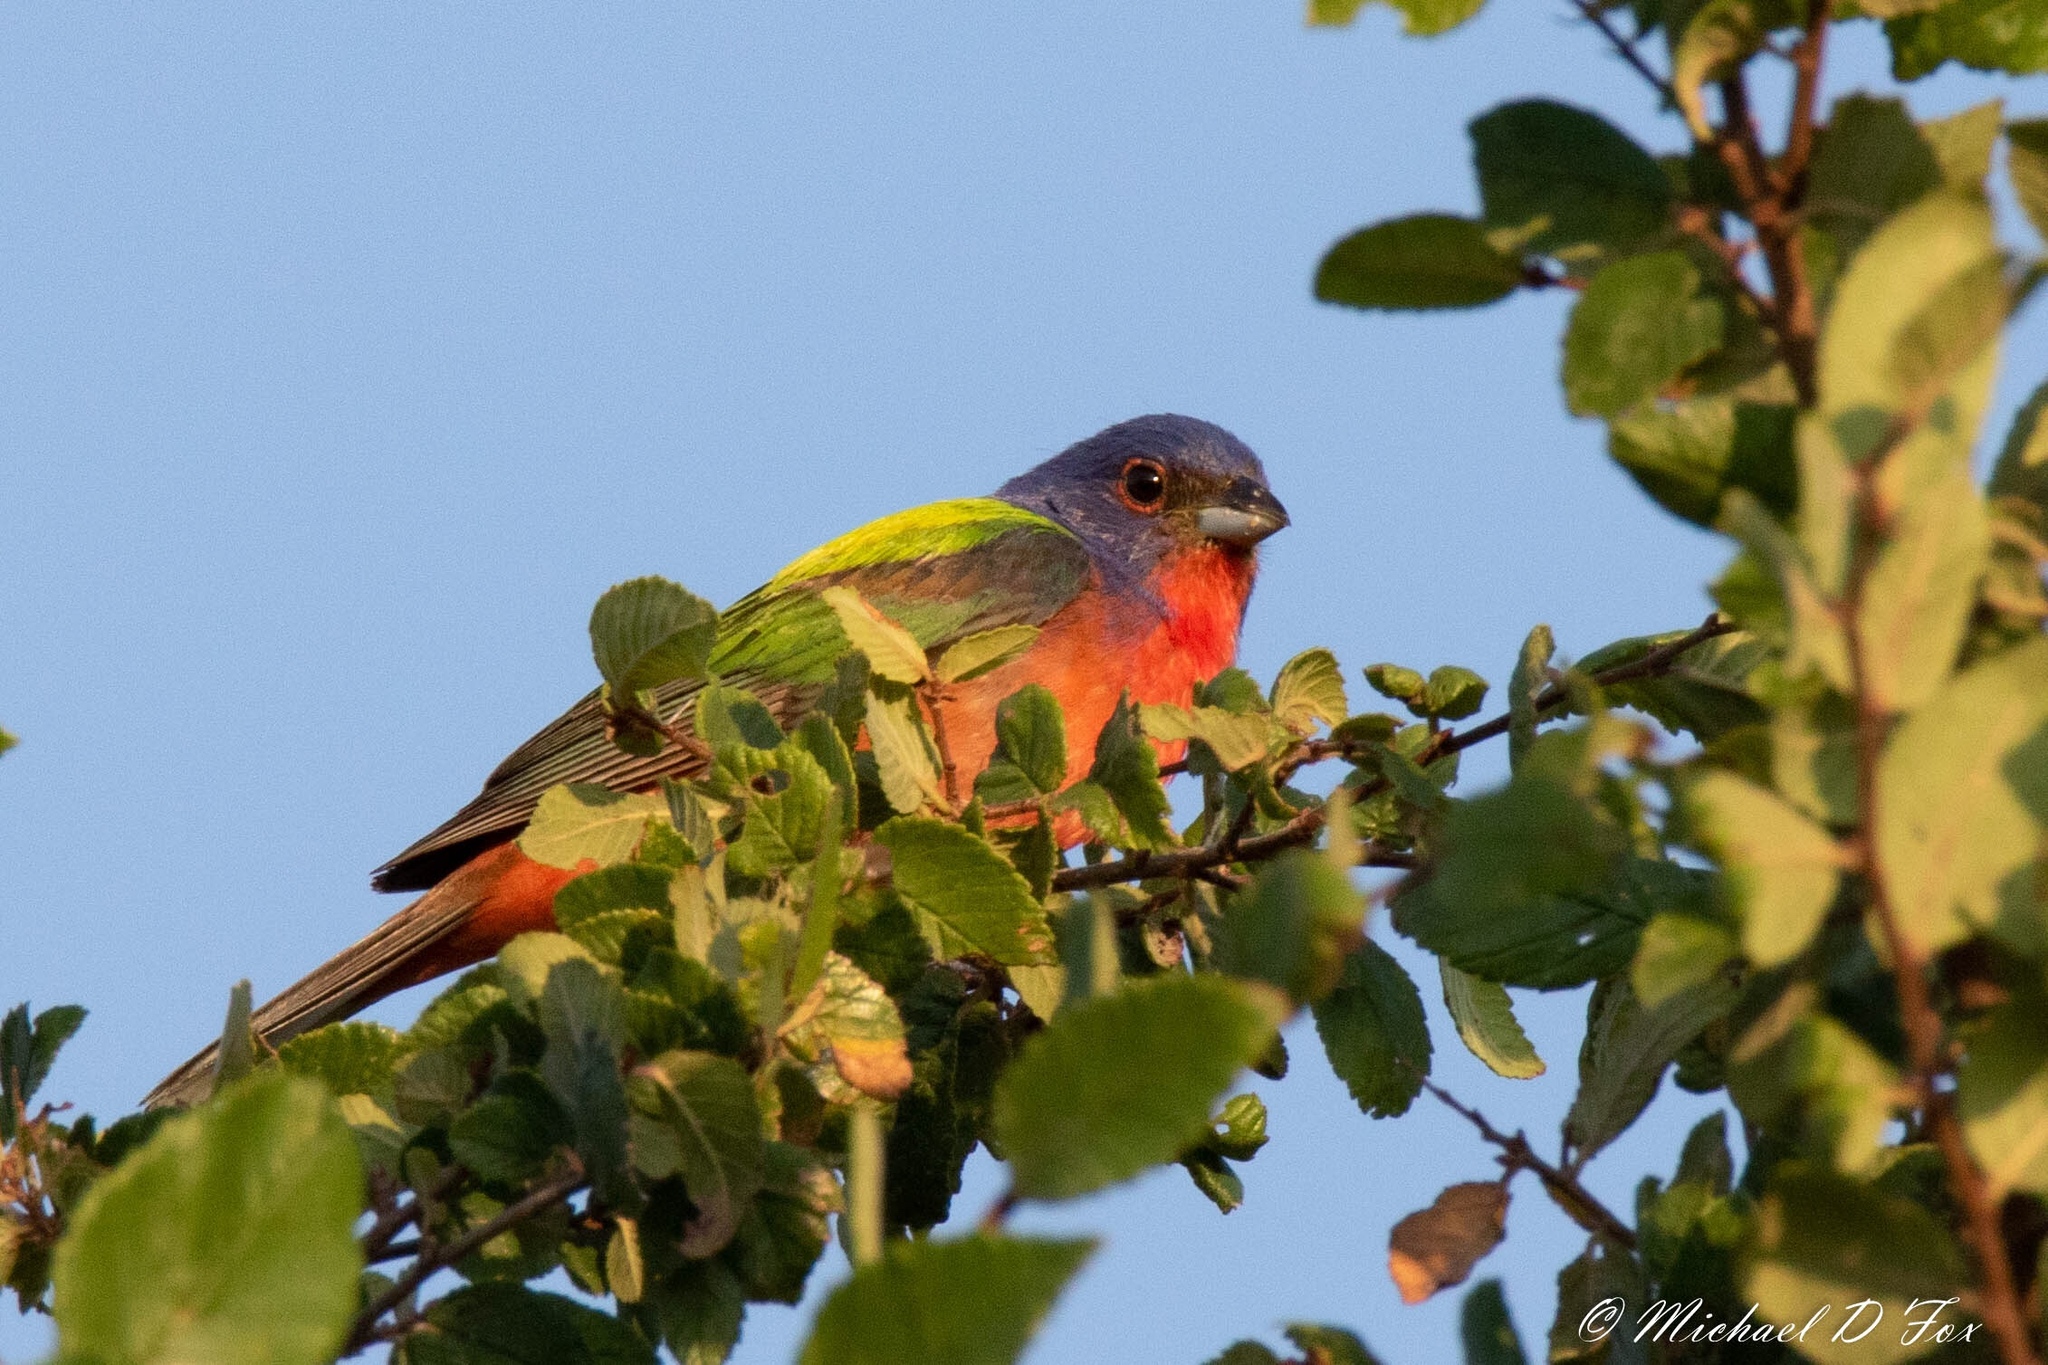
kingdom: Animalia
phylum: Chordata
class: Aves
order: Passeriformes
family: Cardinalidae
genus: Passerina
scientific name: Passerina ciris
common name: Painted bunting
